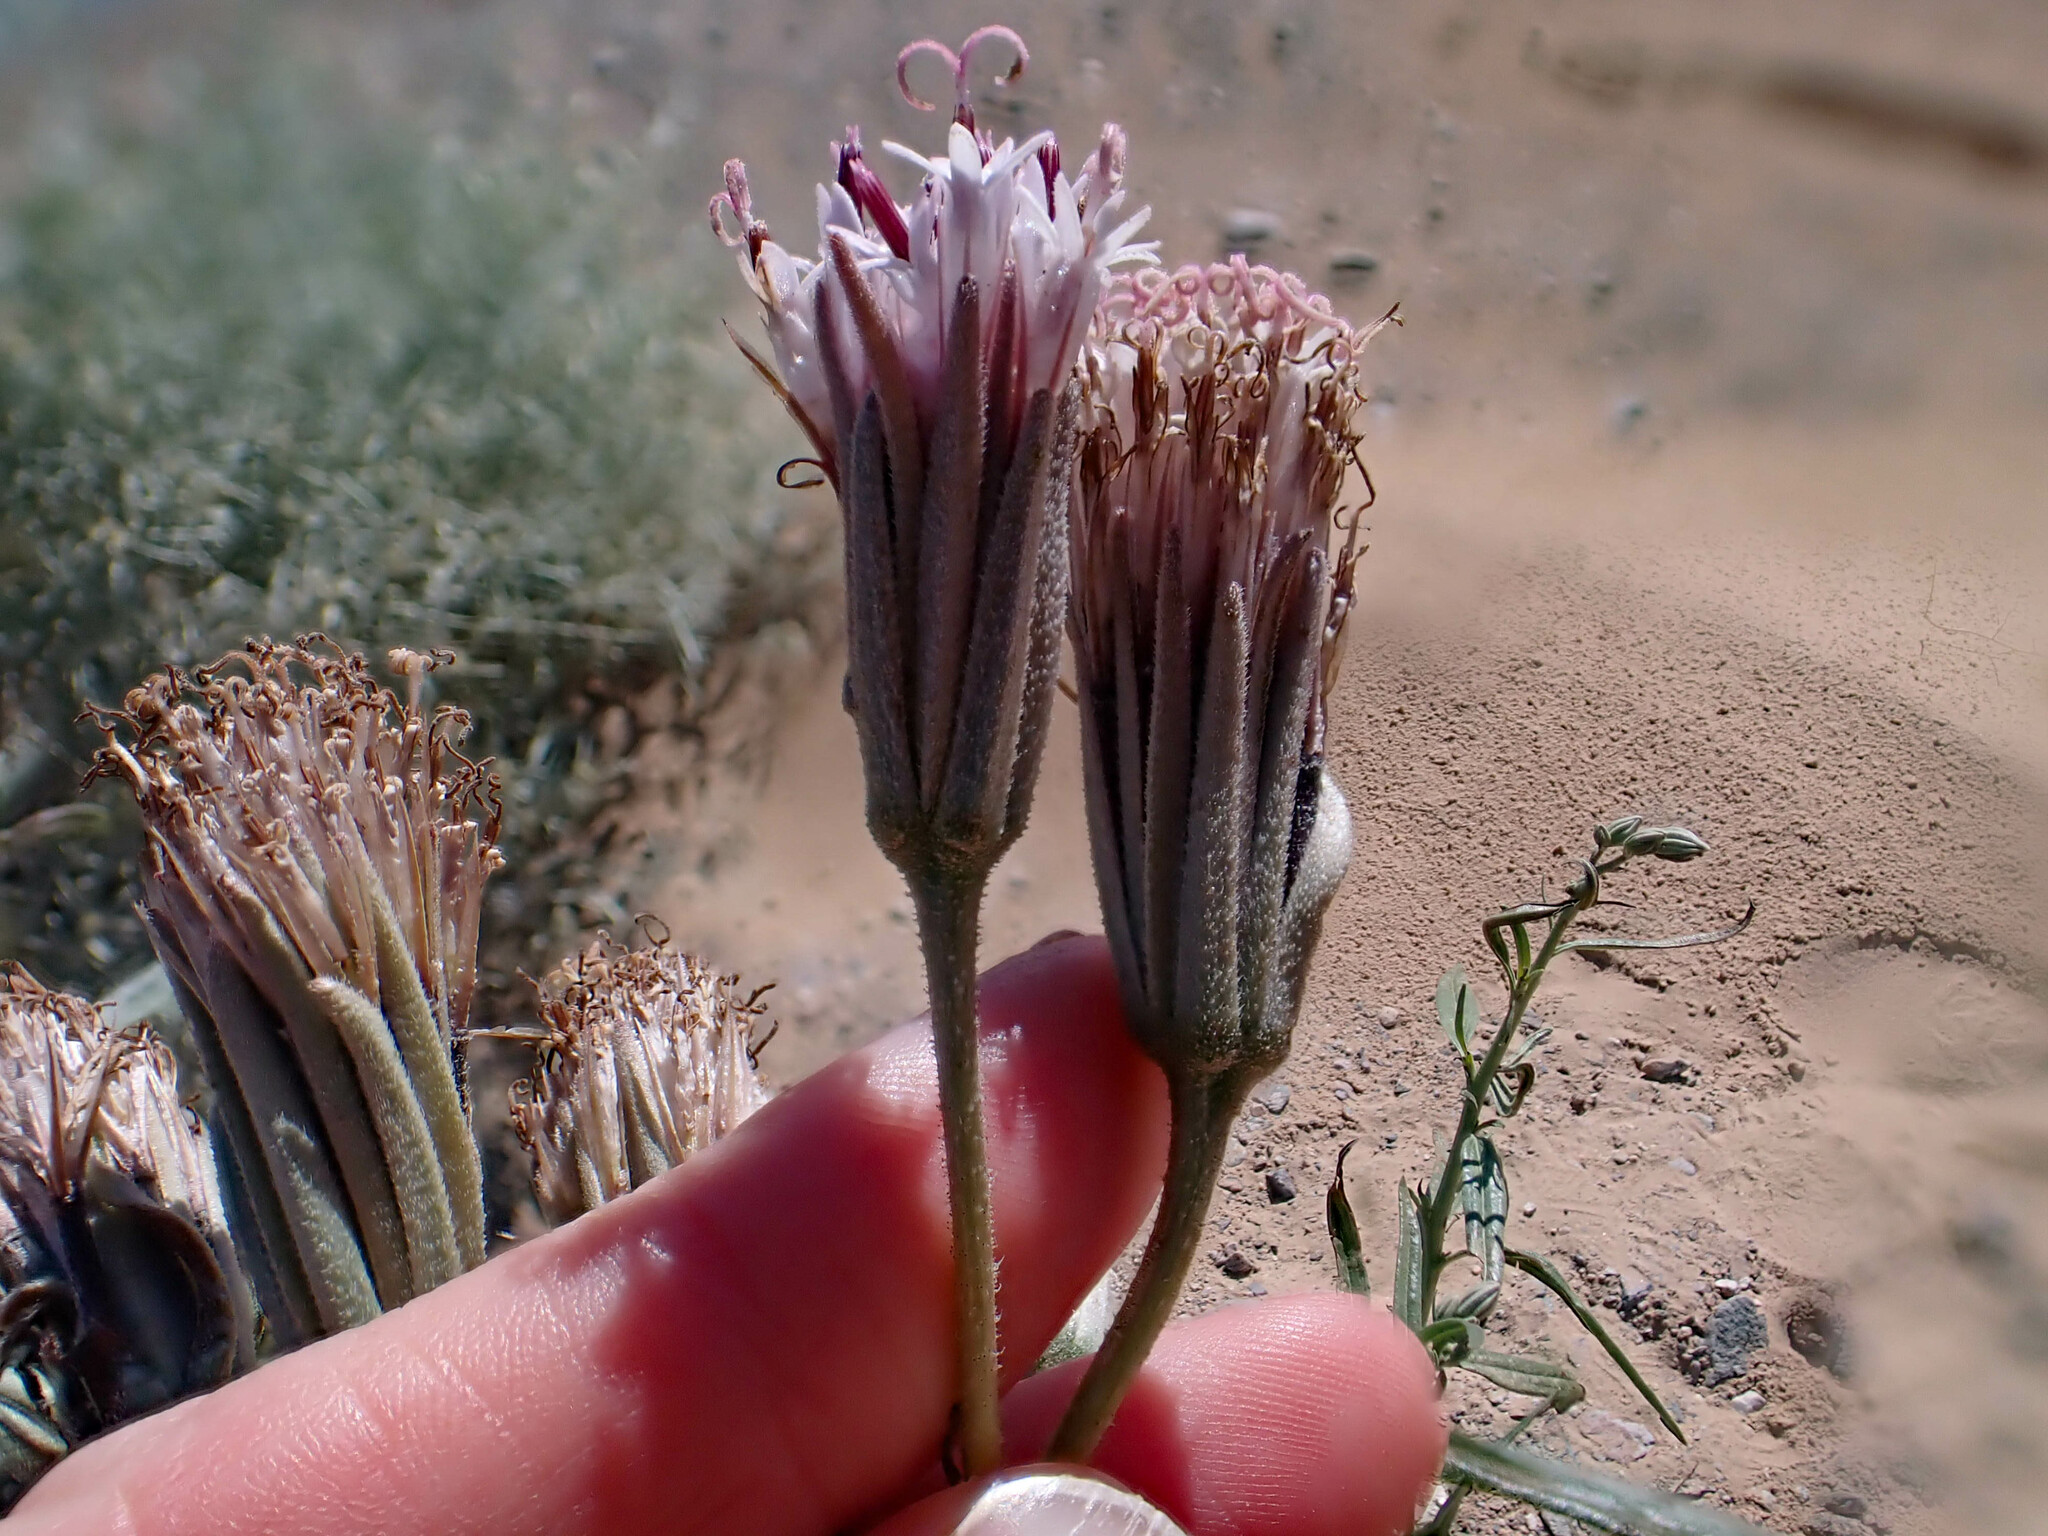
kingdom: Plantae
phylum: Tracheophyta
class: Magnoliopsida
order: Asterales
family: Asteraceae
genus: Palafoxia
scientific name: Palafoxia arida
